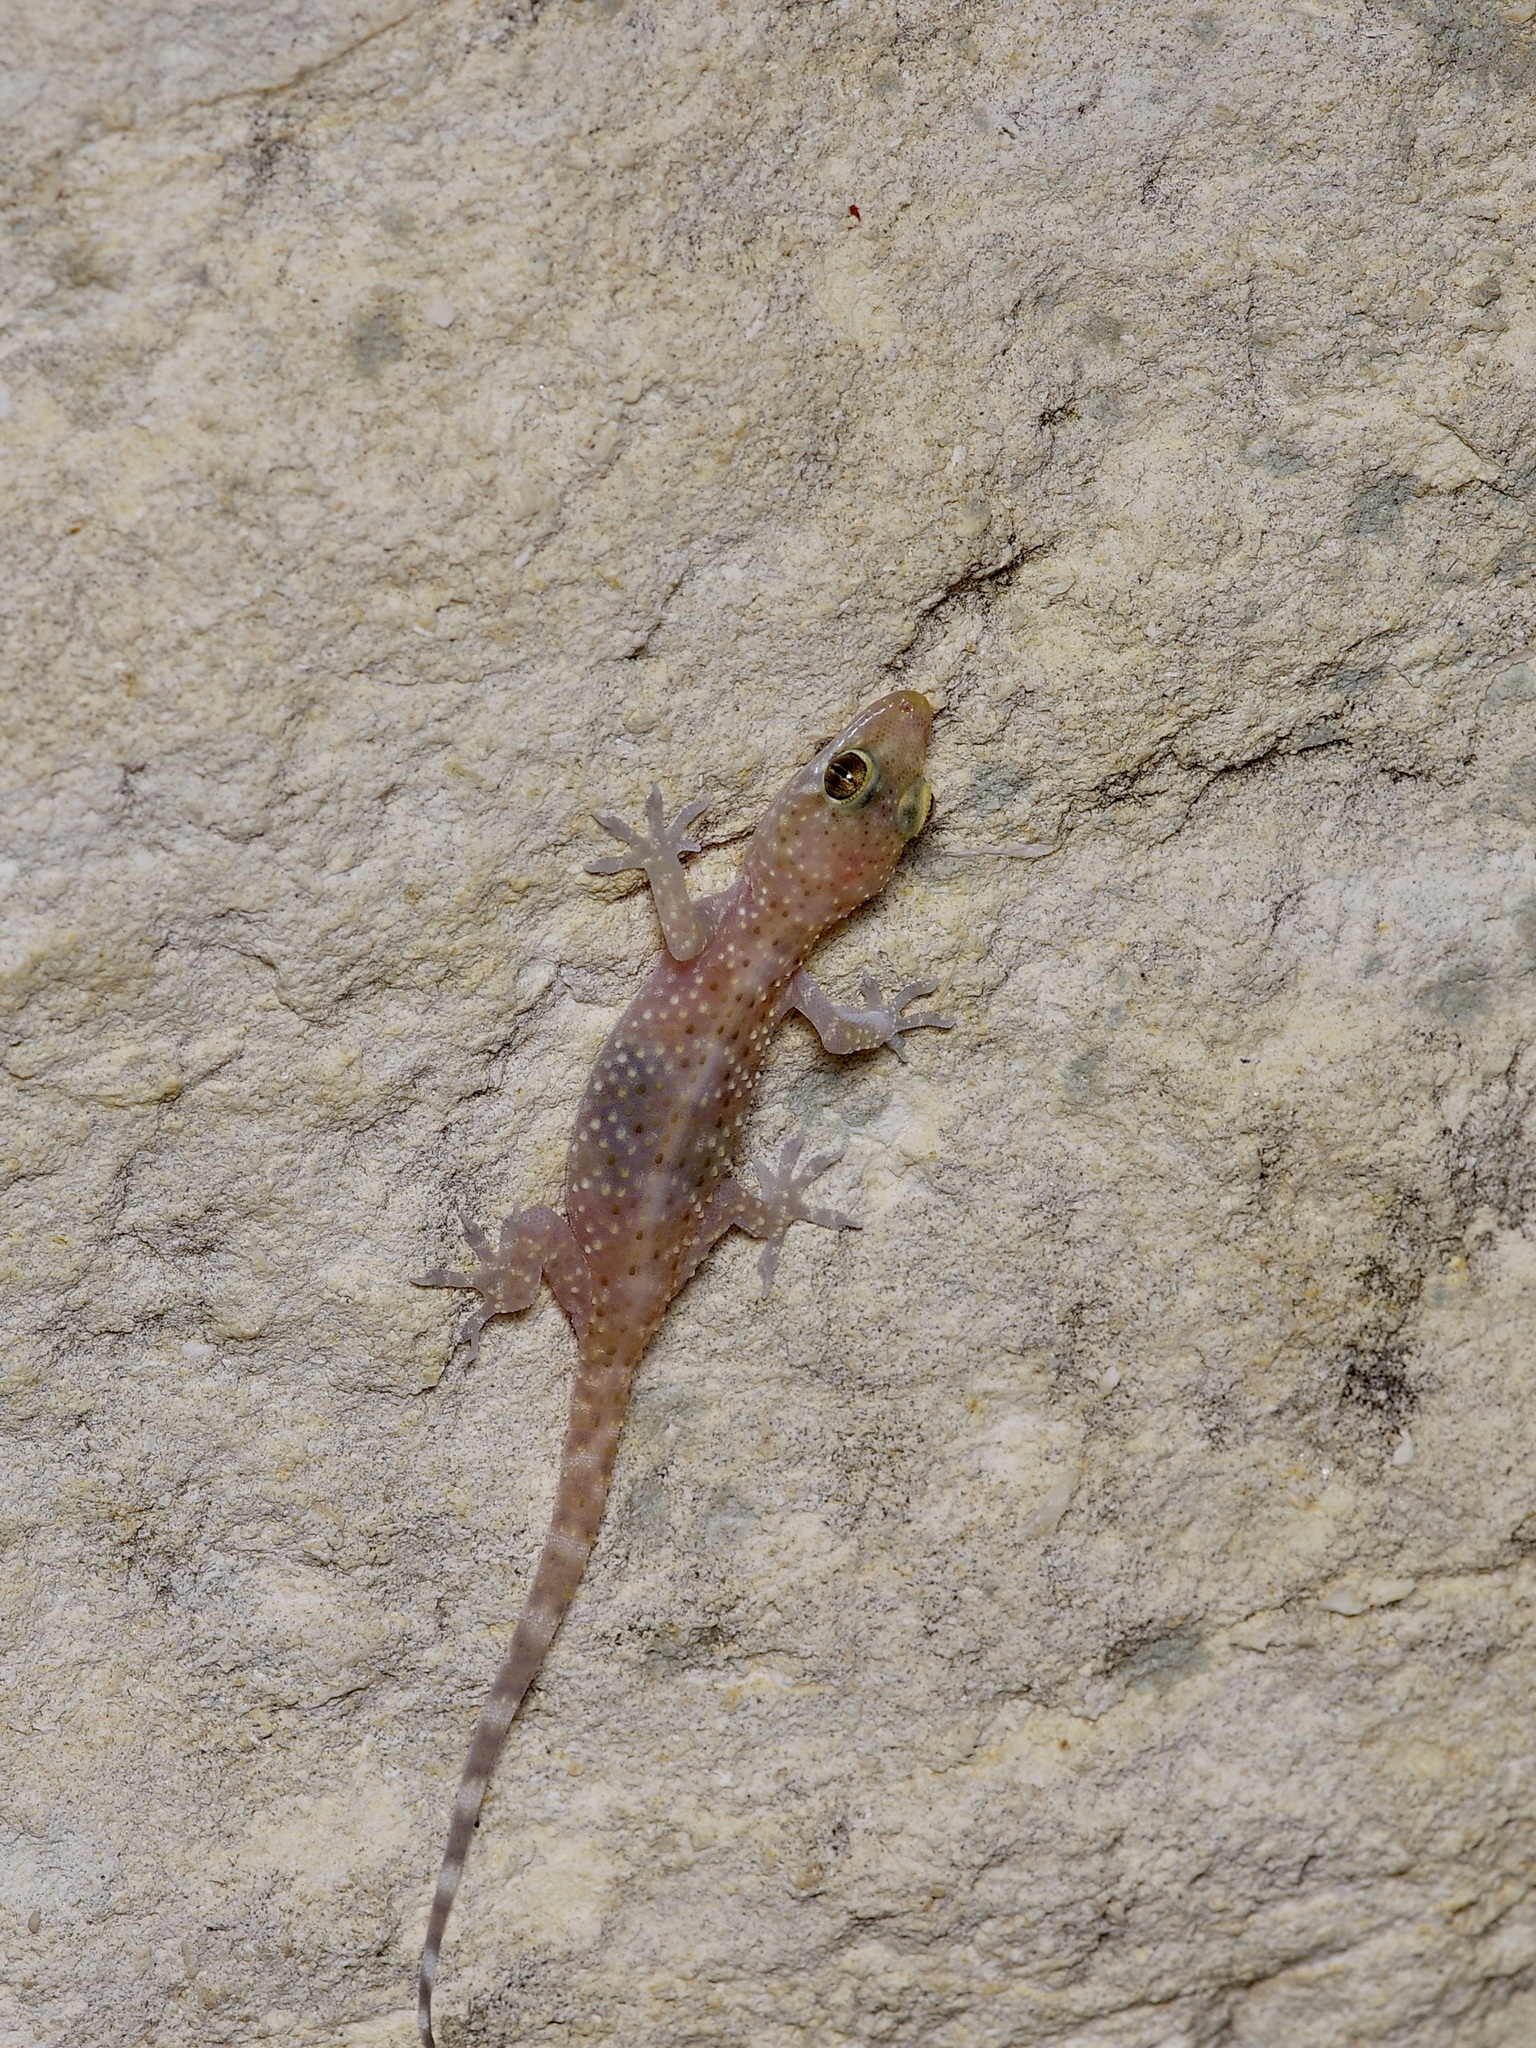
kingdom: Animalia
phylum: Chordata
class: Squamata
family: Gekkonidae
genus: Hemidactylus
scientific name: Hemidactylus turcicus
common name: Turkish gecko
